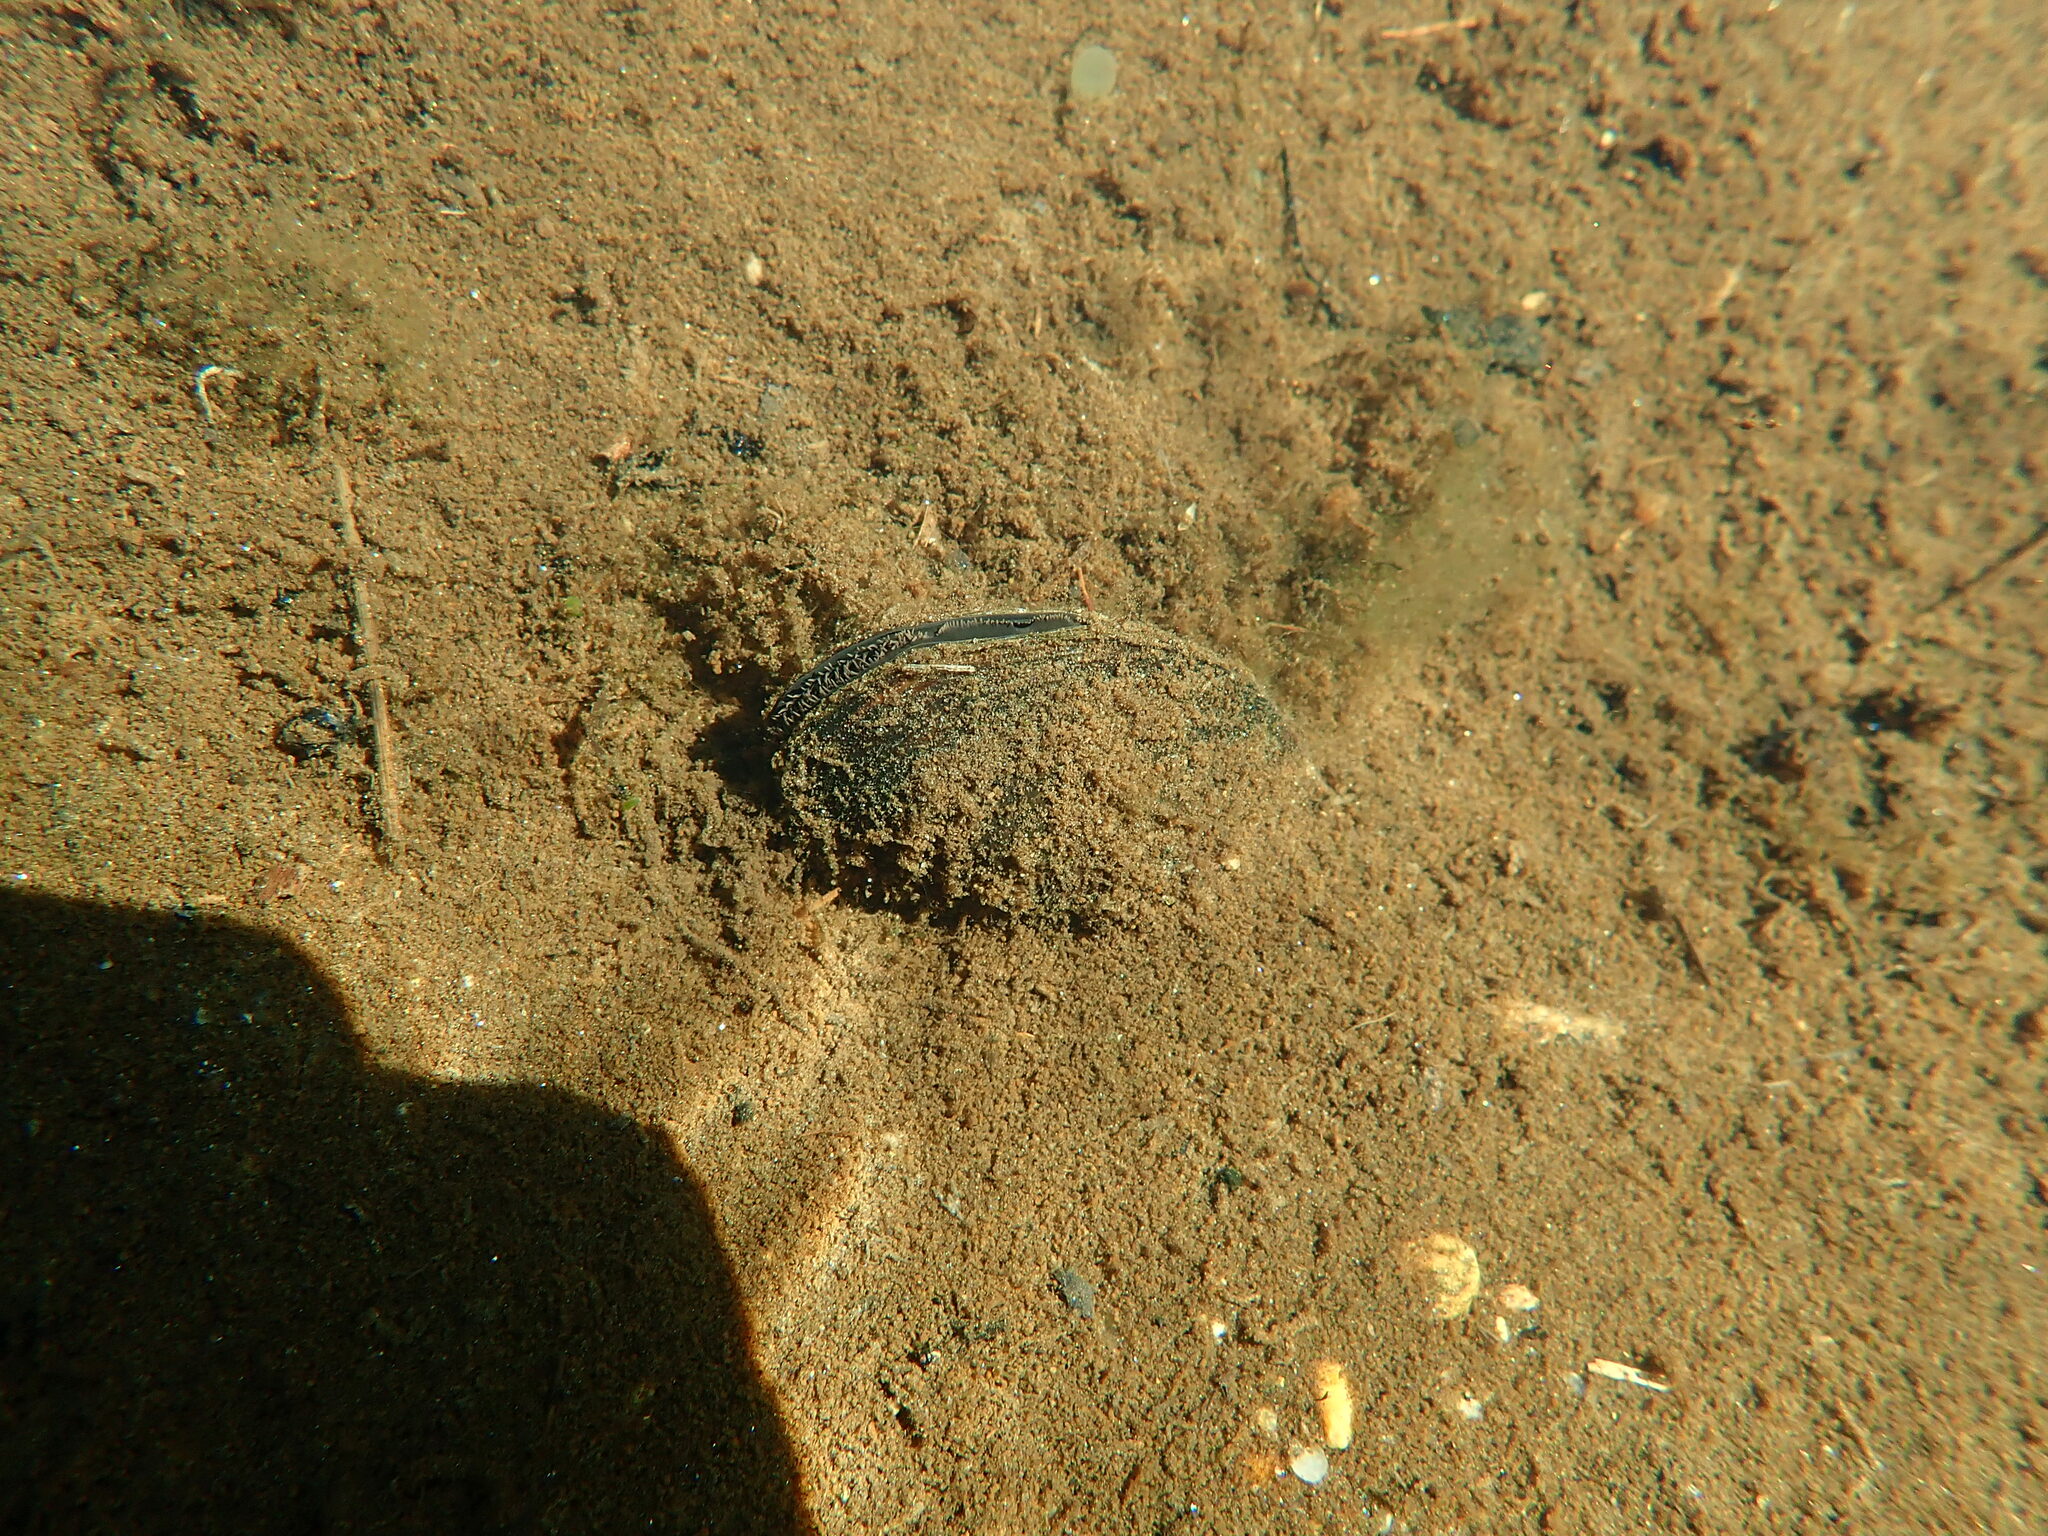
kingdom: Animalia
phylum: Mollusca
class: Bivalvia
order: Unionida
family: Unionidae
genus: Elliptio
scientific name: Elliptio complanata
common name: Eastern elliptio
